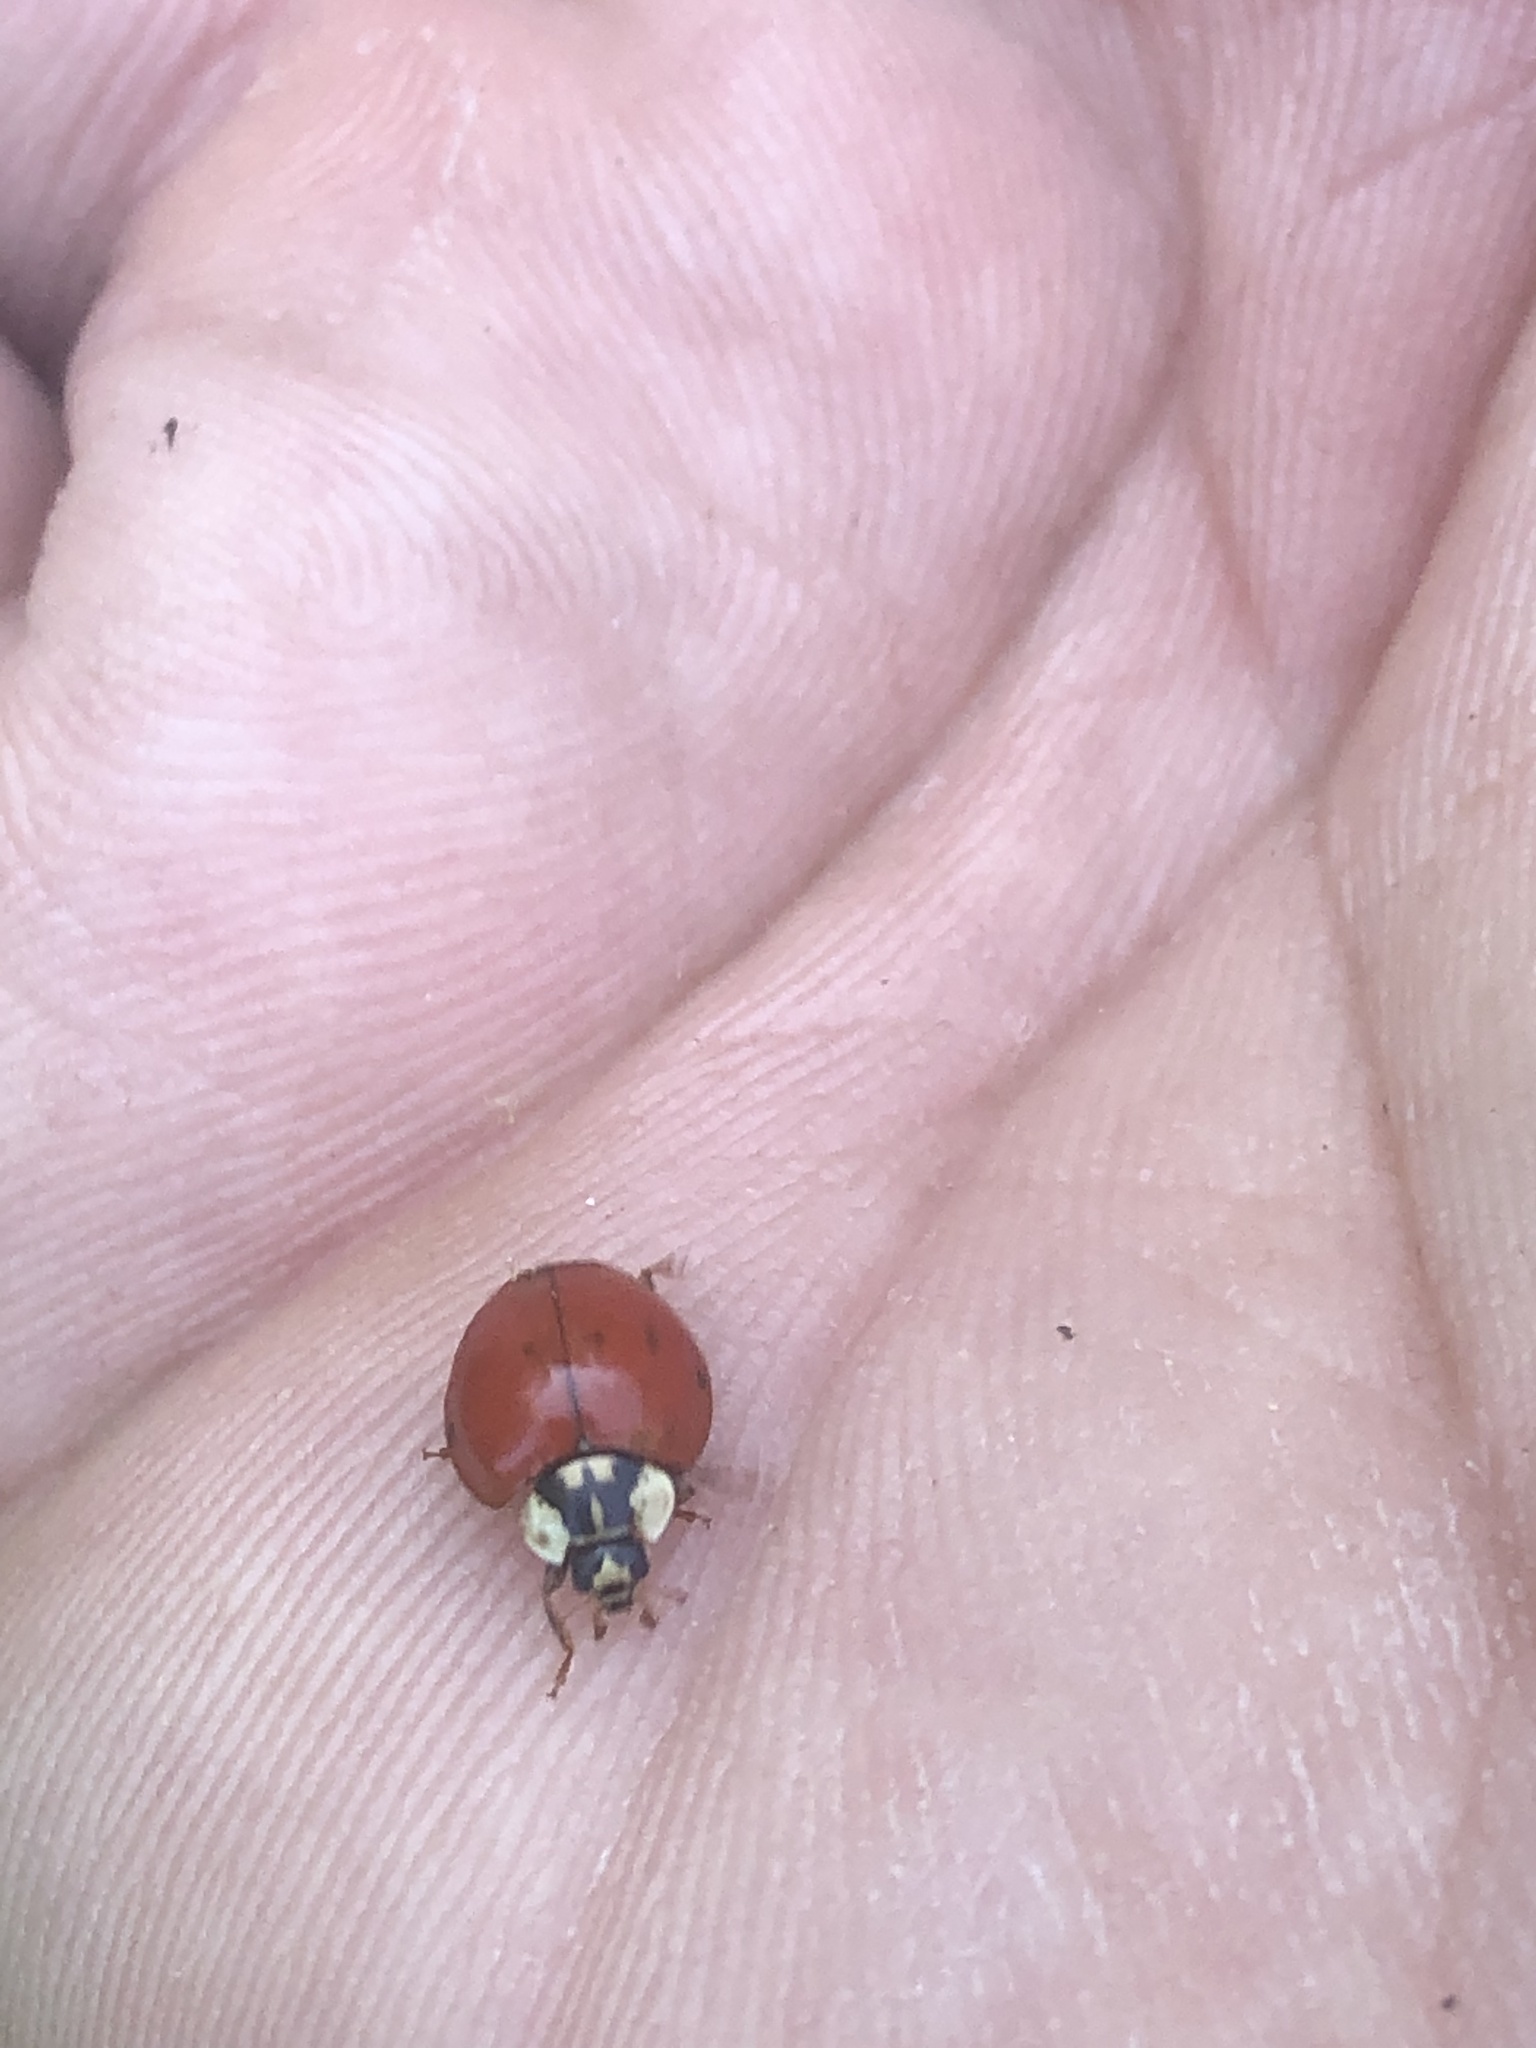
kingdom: Animalia
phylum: Arthropoda
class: Insecta
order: Coleoptera
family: Coccinellidae
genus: Harmonia
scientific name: Harmonia axyridis
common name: Harlequin ladybird
